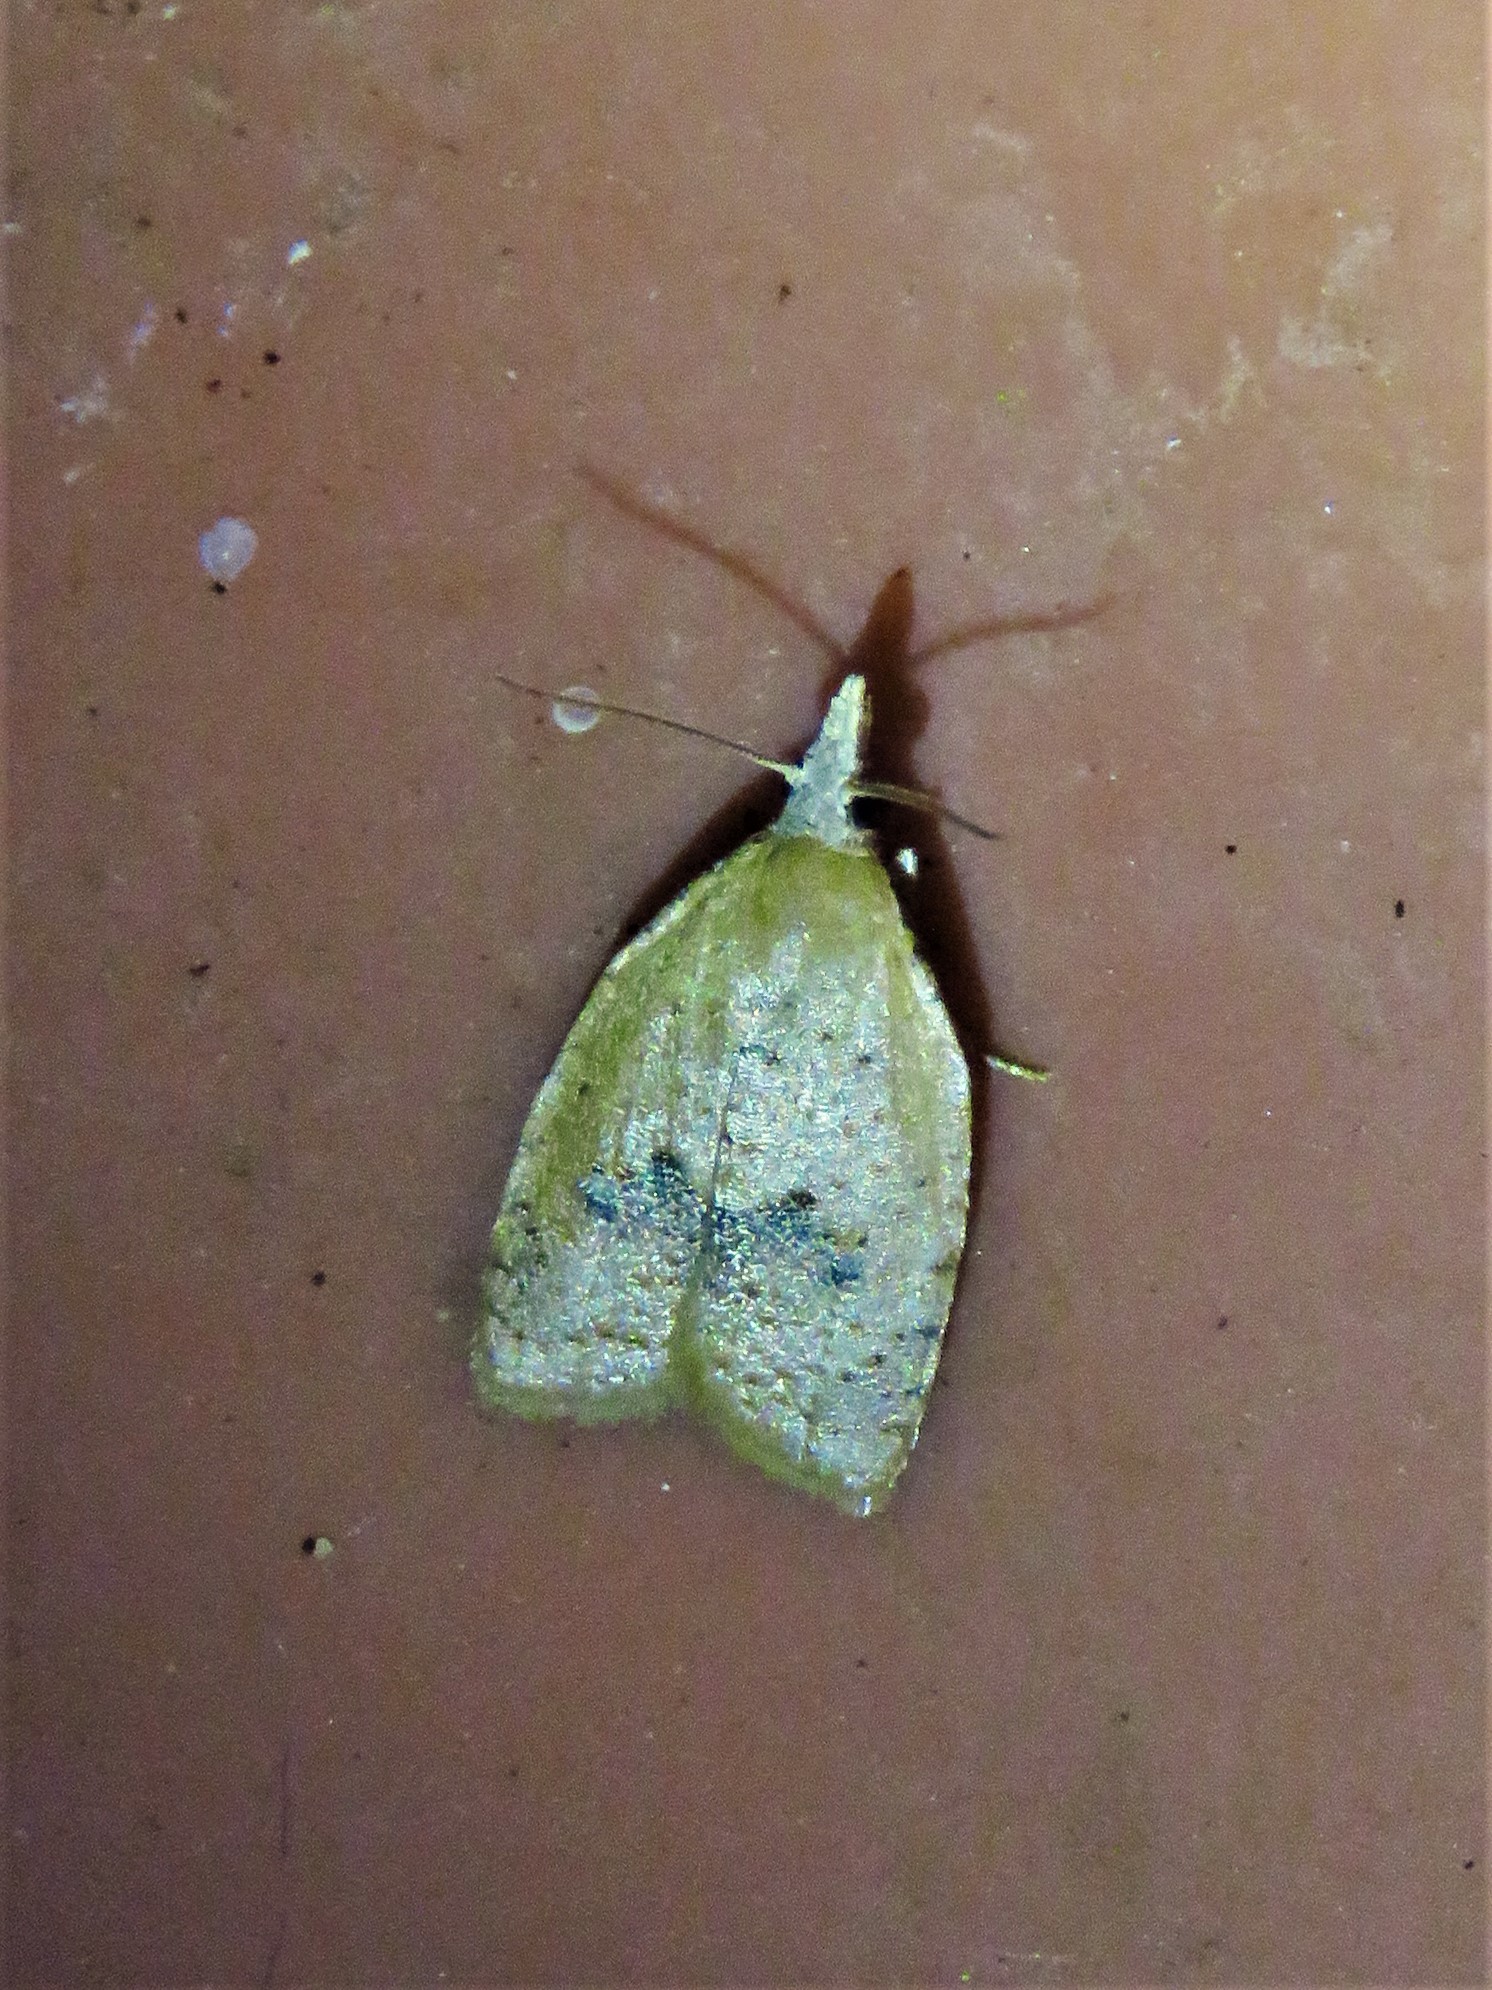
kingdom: Animalia
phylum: Arthropoda
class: Insecta
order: Lepidoptera
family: Tortricidae
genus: Sparganothoides
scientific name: Sparganothoides lentiginosana
